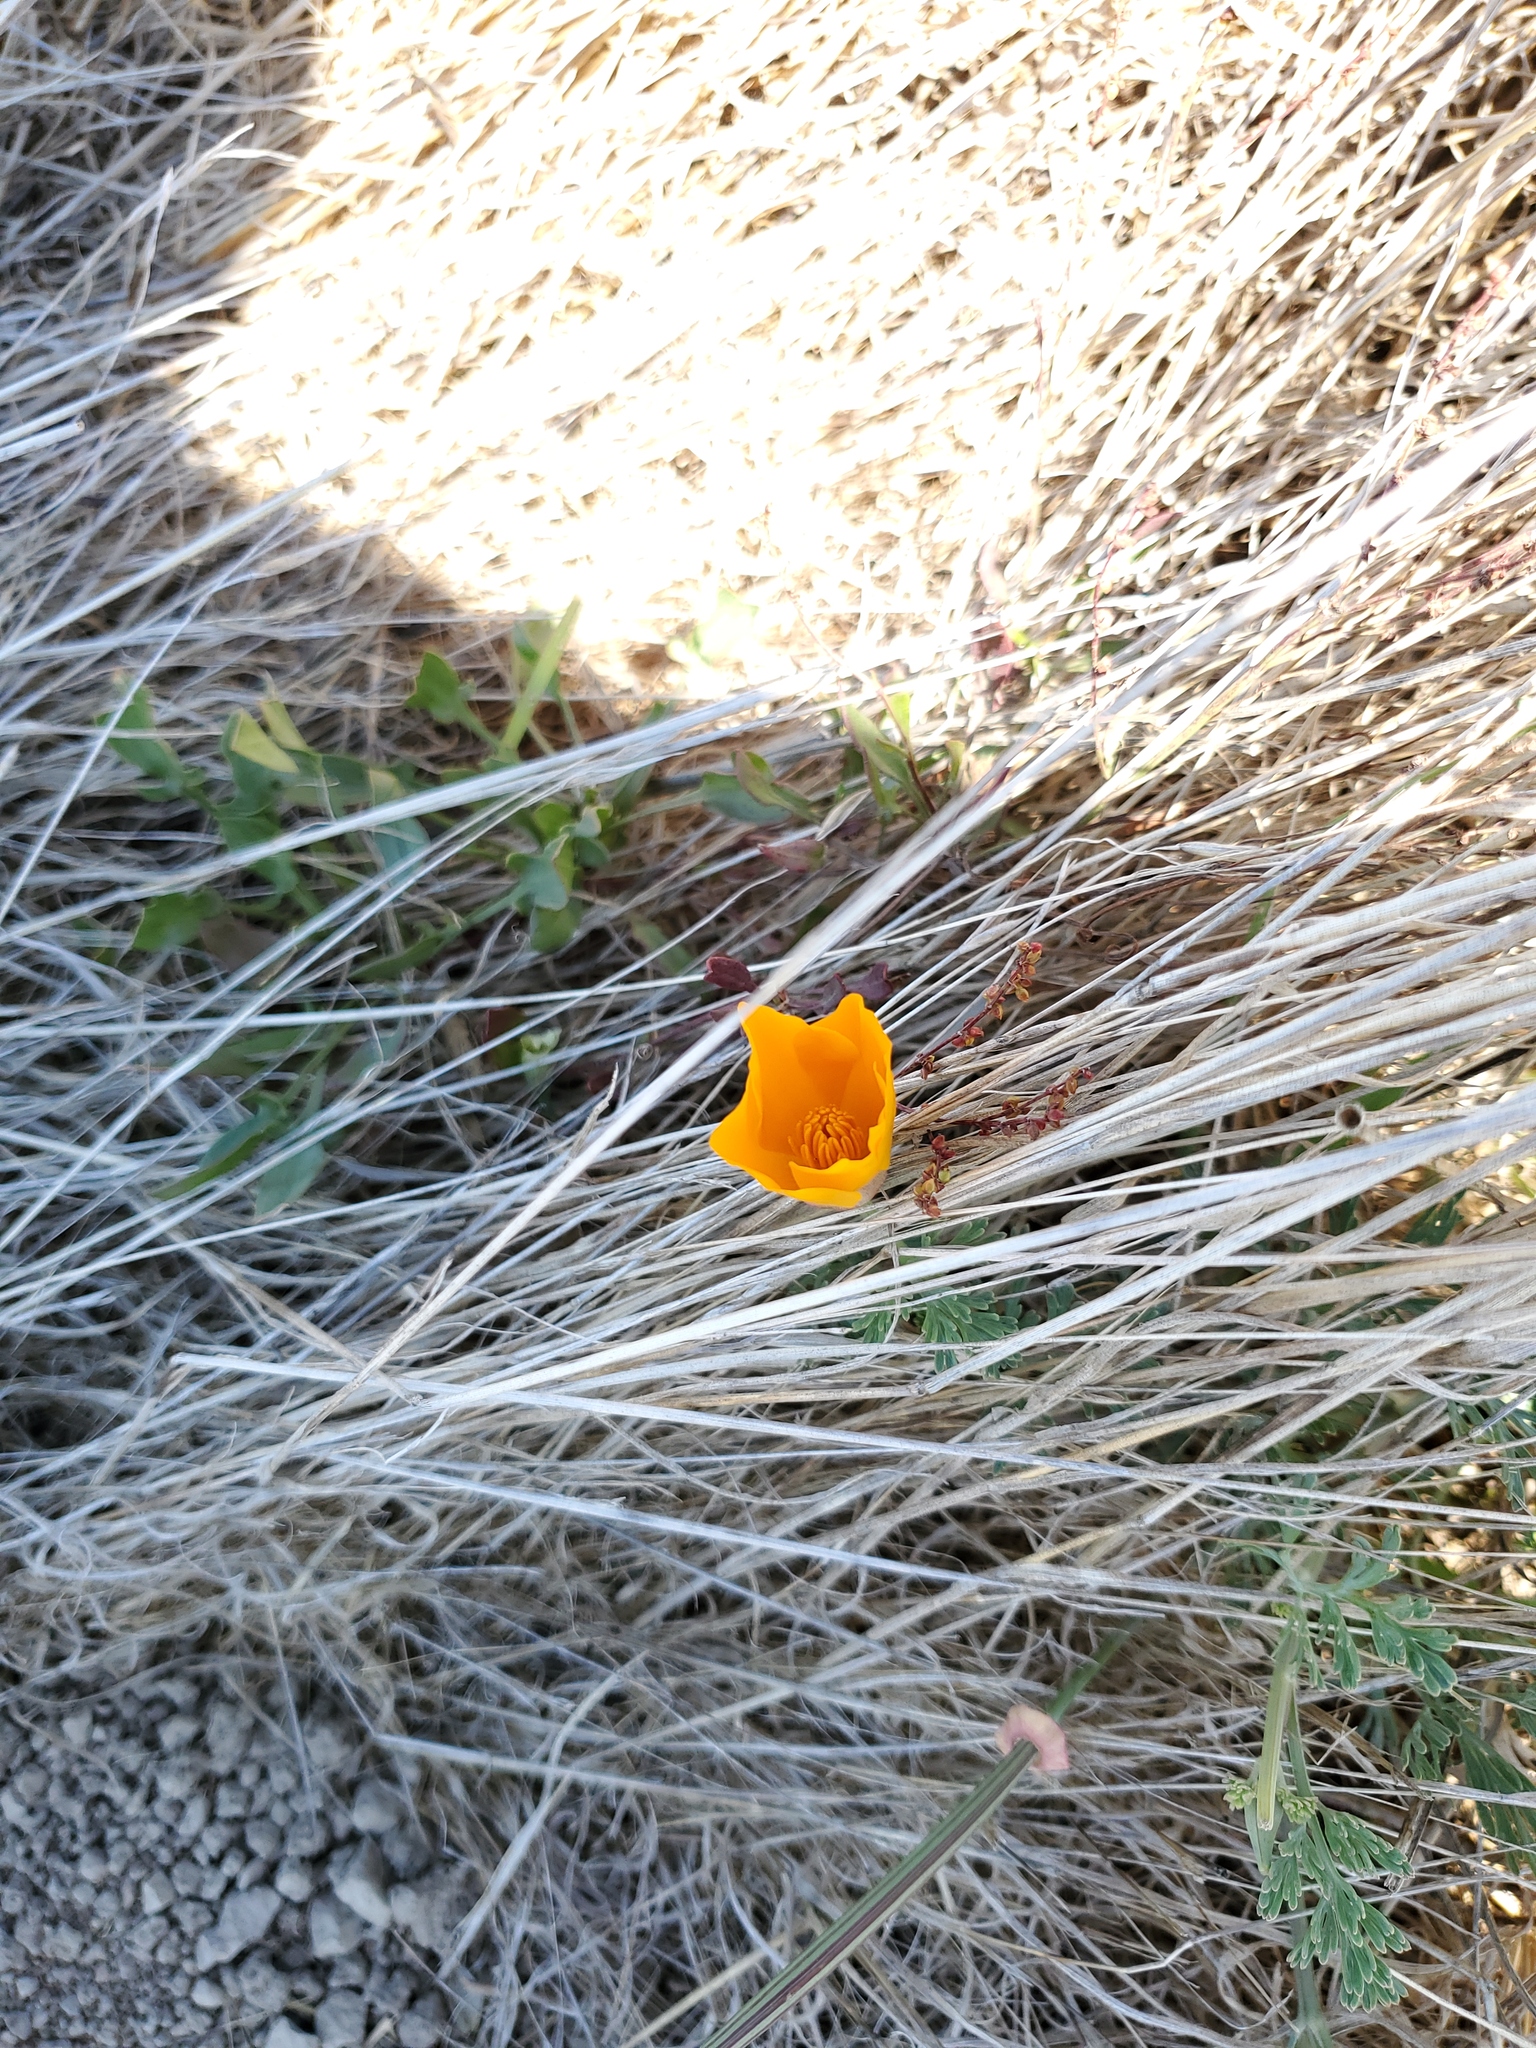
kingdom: Plantae
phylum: Tracheophyta
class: Magnoliopsida
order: Ranunculales
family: Papaveraceae
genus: Eschscholzia
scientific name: Eschscholzia californica
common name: California poppy
